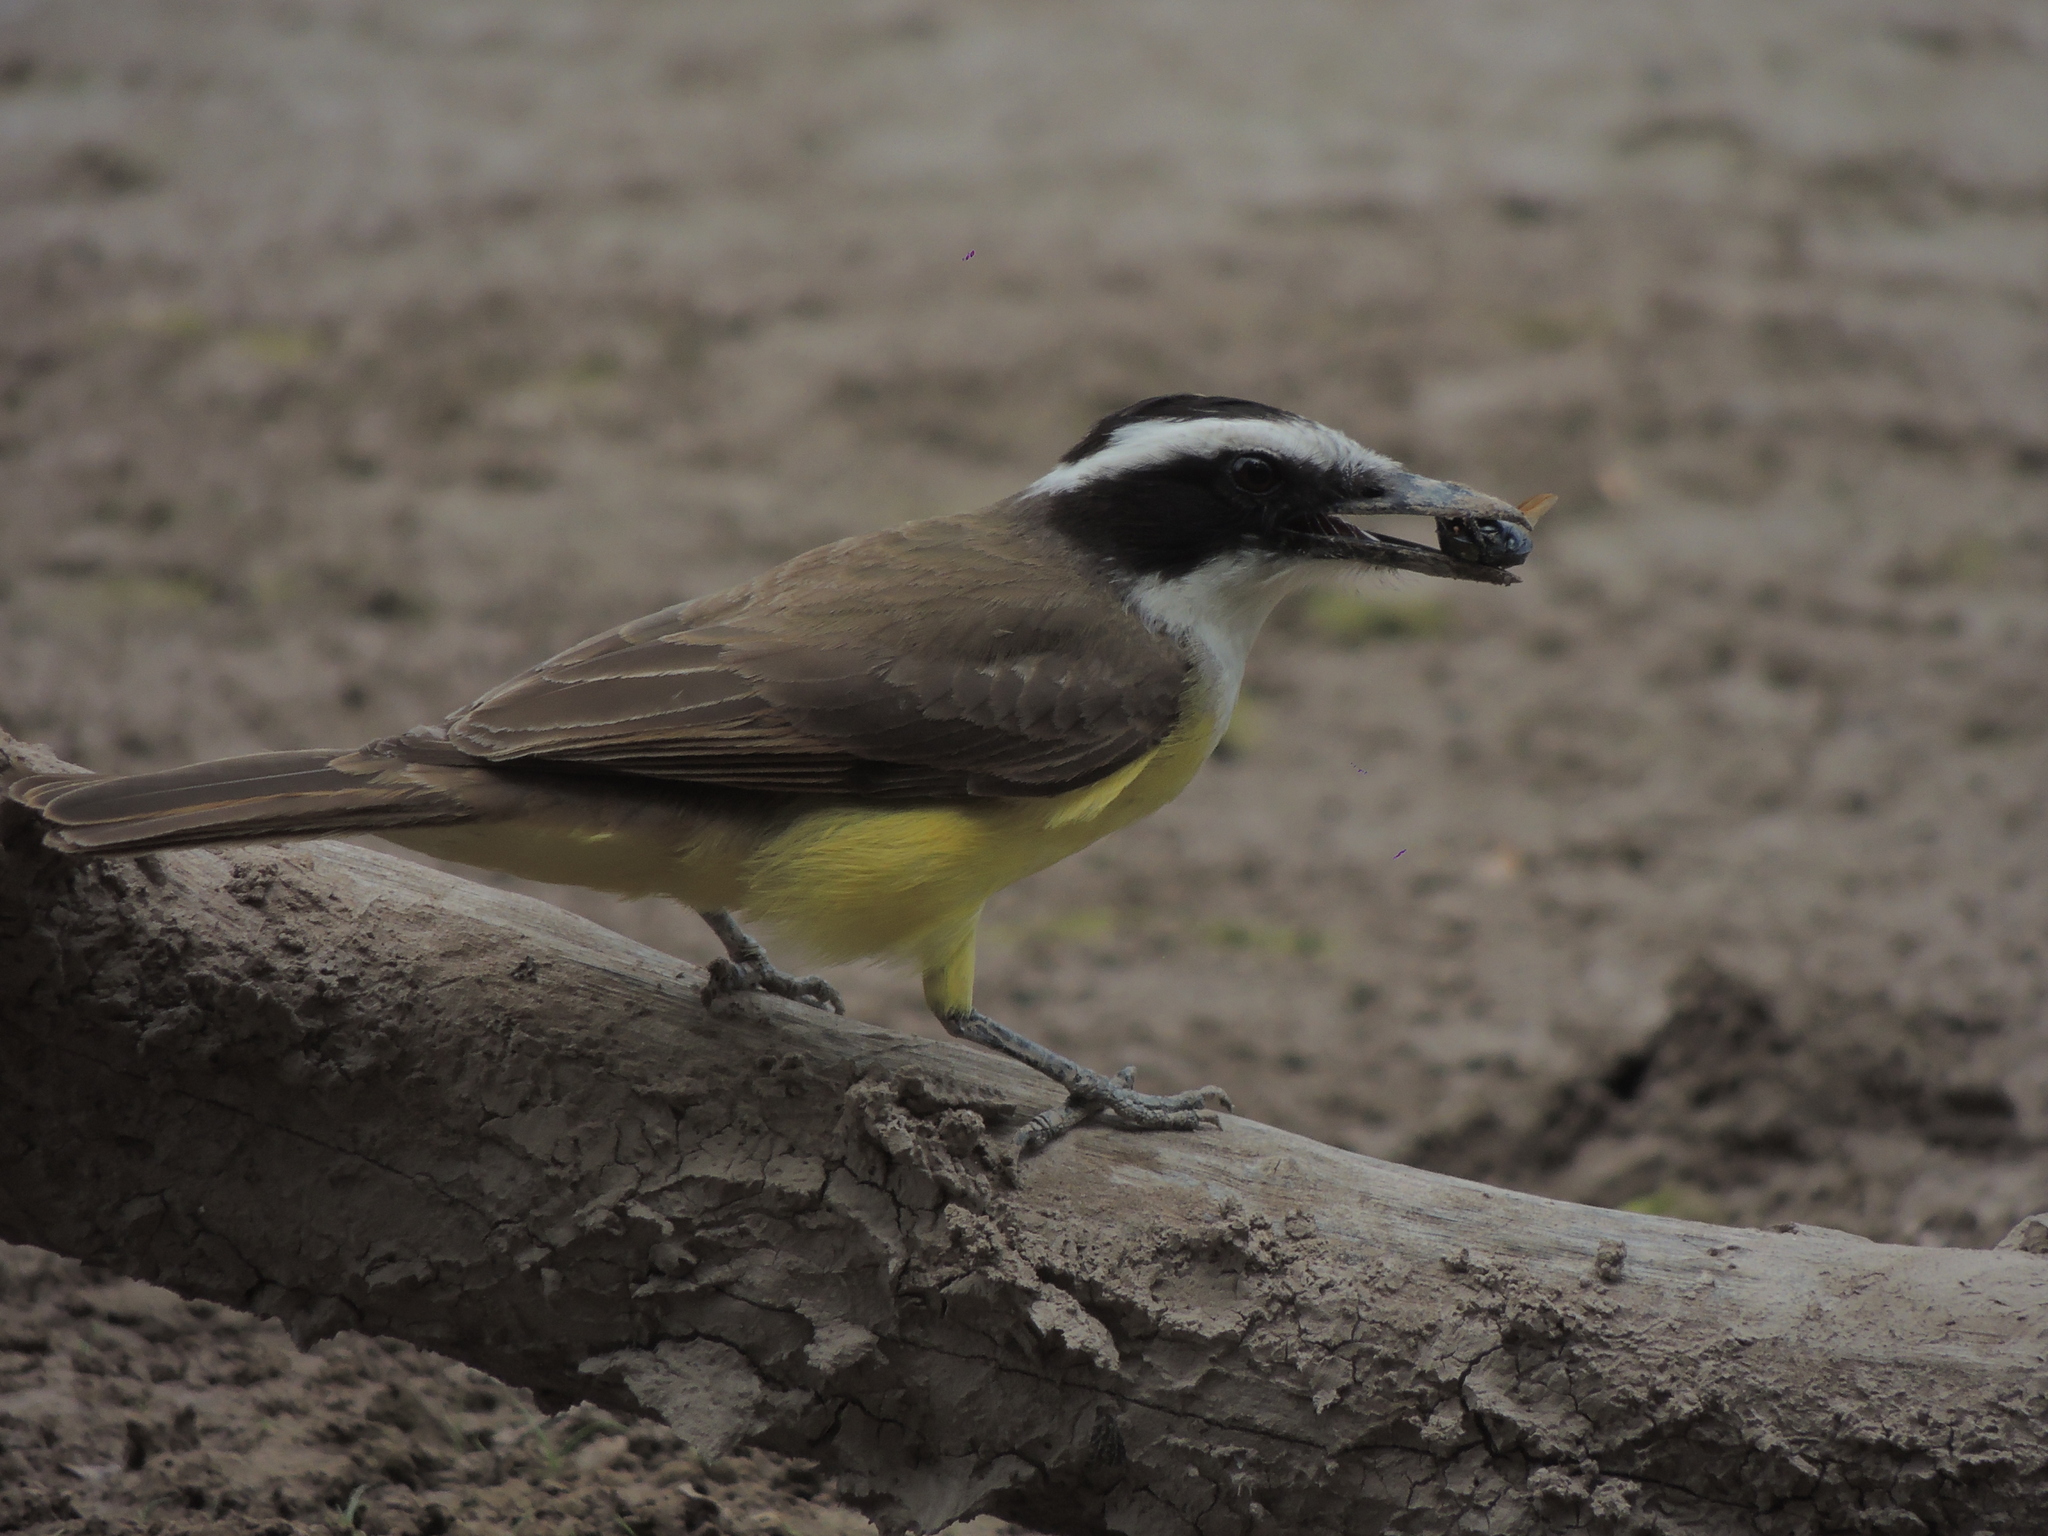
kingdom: Animalia
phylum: Chordata
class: Aves
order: Passeriformes
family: Tyrannidae
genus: Pitangus
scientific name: Pitangus sulphuratus
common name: Great kiskadee
